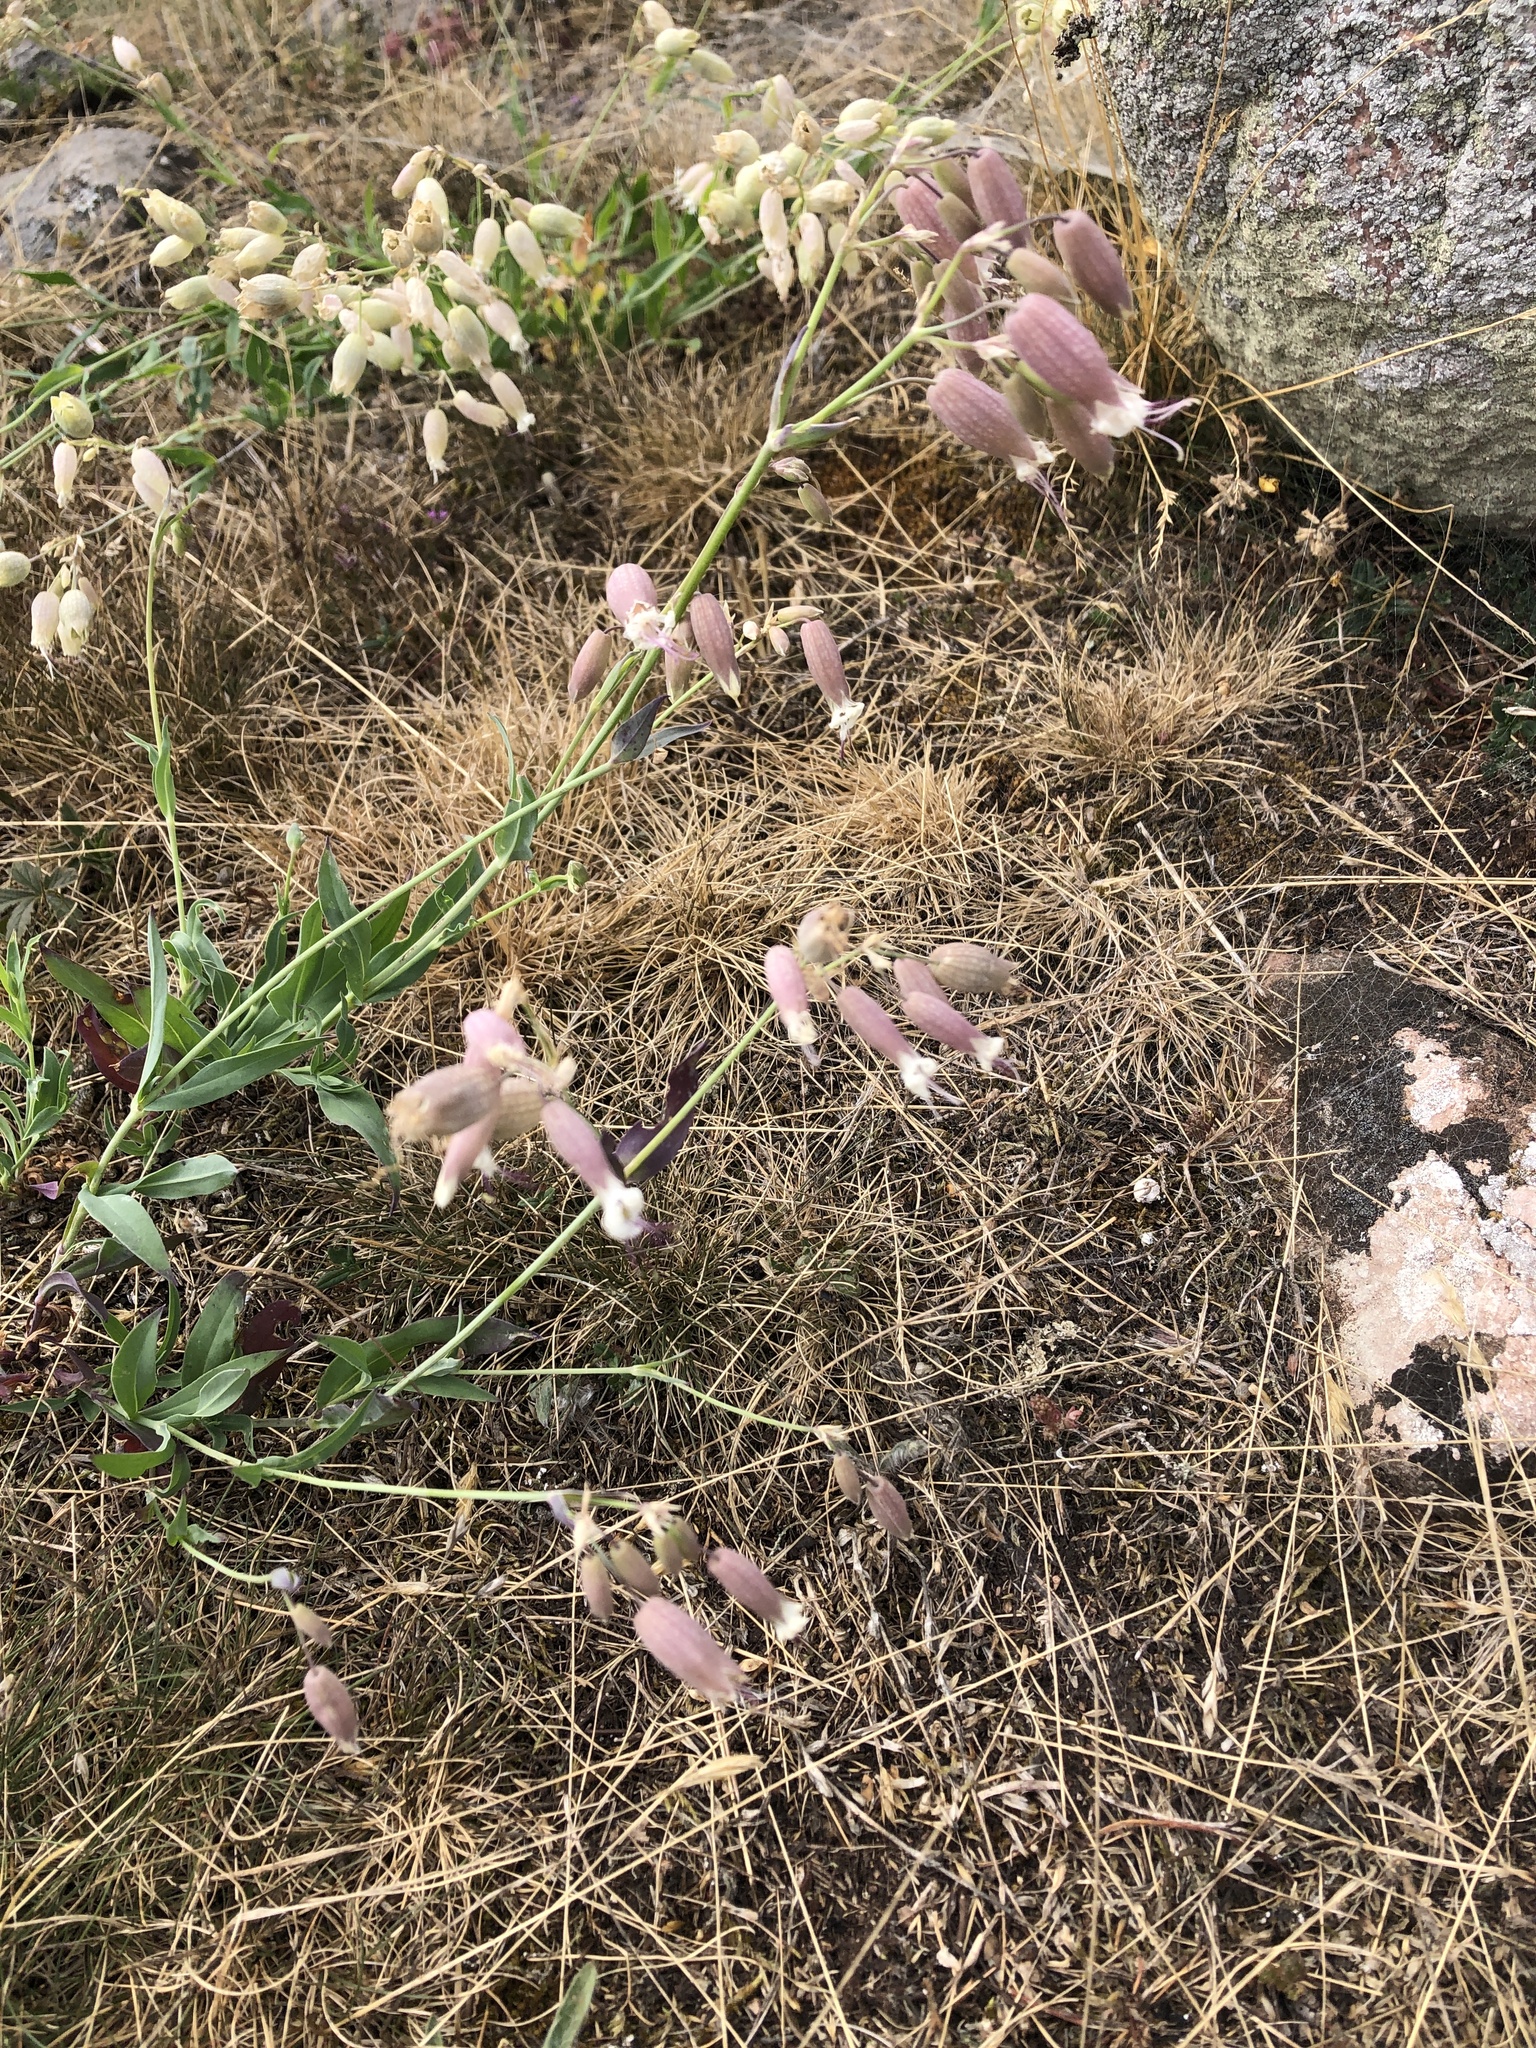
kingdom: Plantae
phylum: Tracheophyta
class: Magnoliopsida
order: Caryophyllales
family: Caryophyllaceae
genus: Silene
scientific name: Silene vulgaris
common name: Bladder campion
